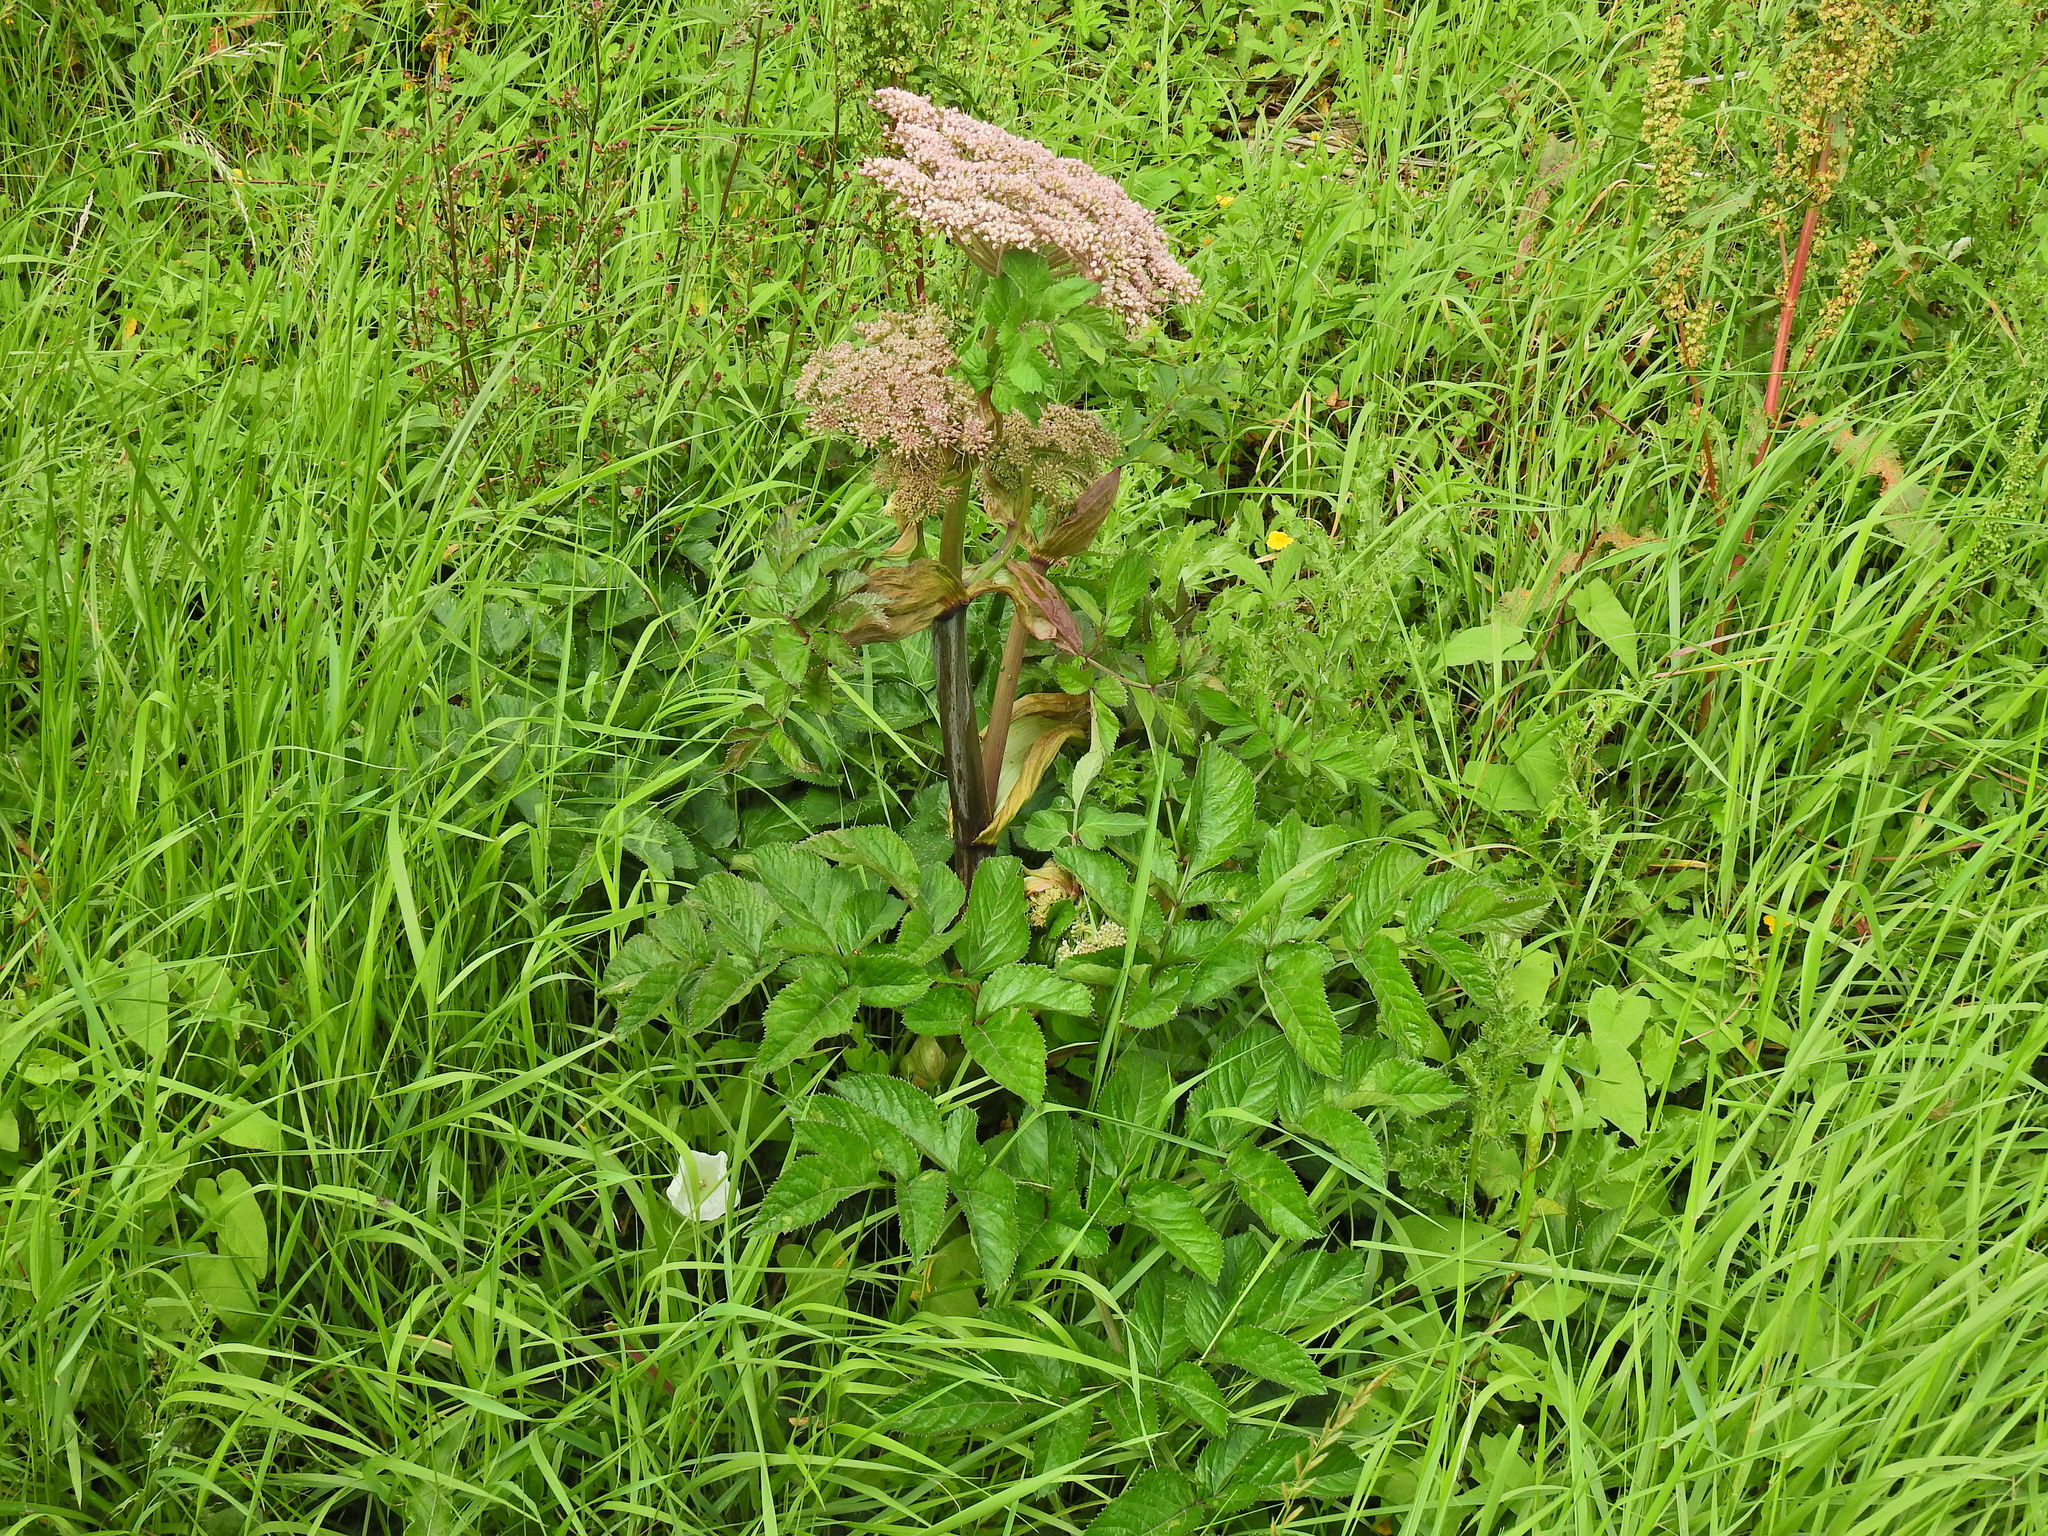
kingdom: Plantae
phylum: Tracheophyta
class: Magnoliopsida
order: Apiales
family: Apiaceae
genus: Angelica
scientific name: Angelica sylvestris
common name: Wild angelica
